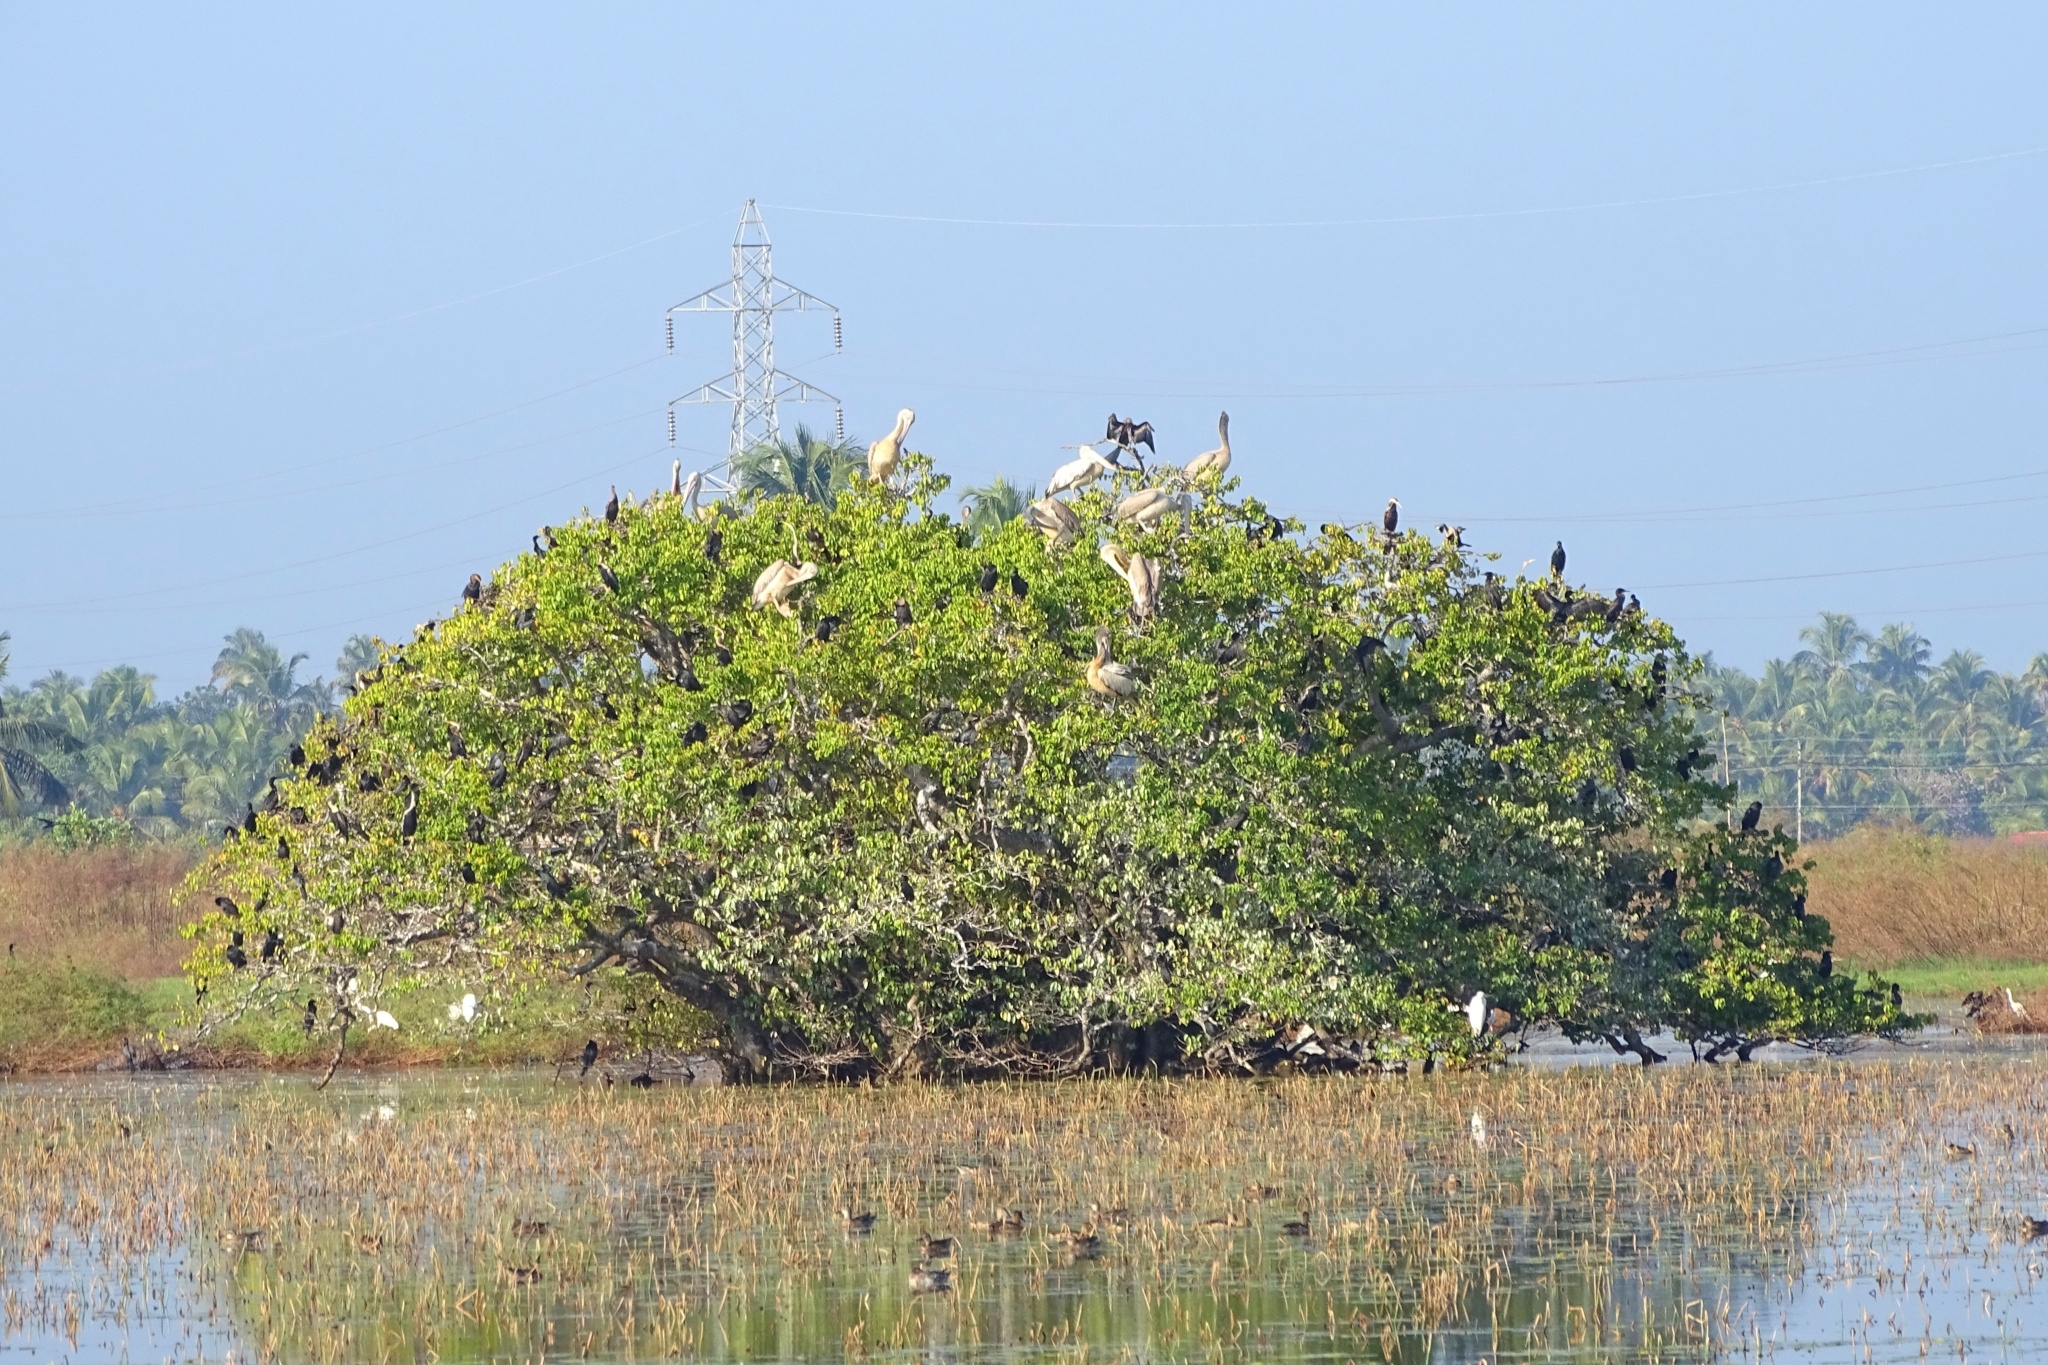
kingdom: Animalia
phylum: Chordata
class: Aves
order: Pelecaniformes
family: Pelecanidae
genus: Pelecanus
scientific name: Pelecanus philippensis
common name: Spot-billed pelican
